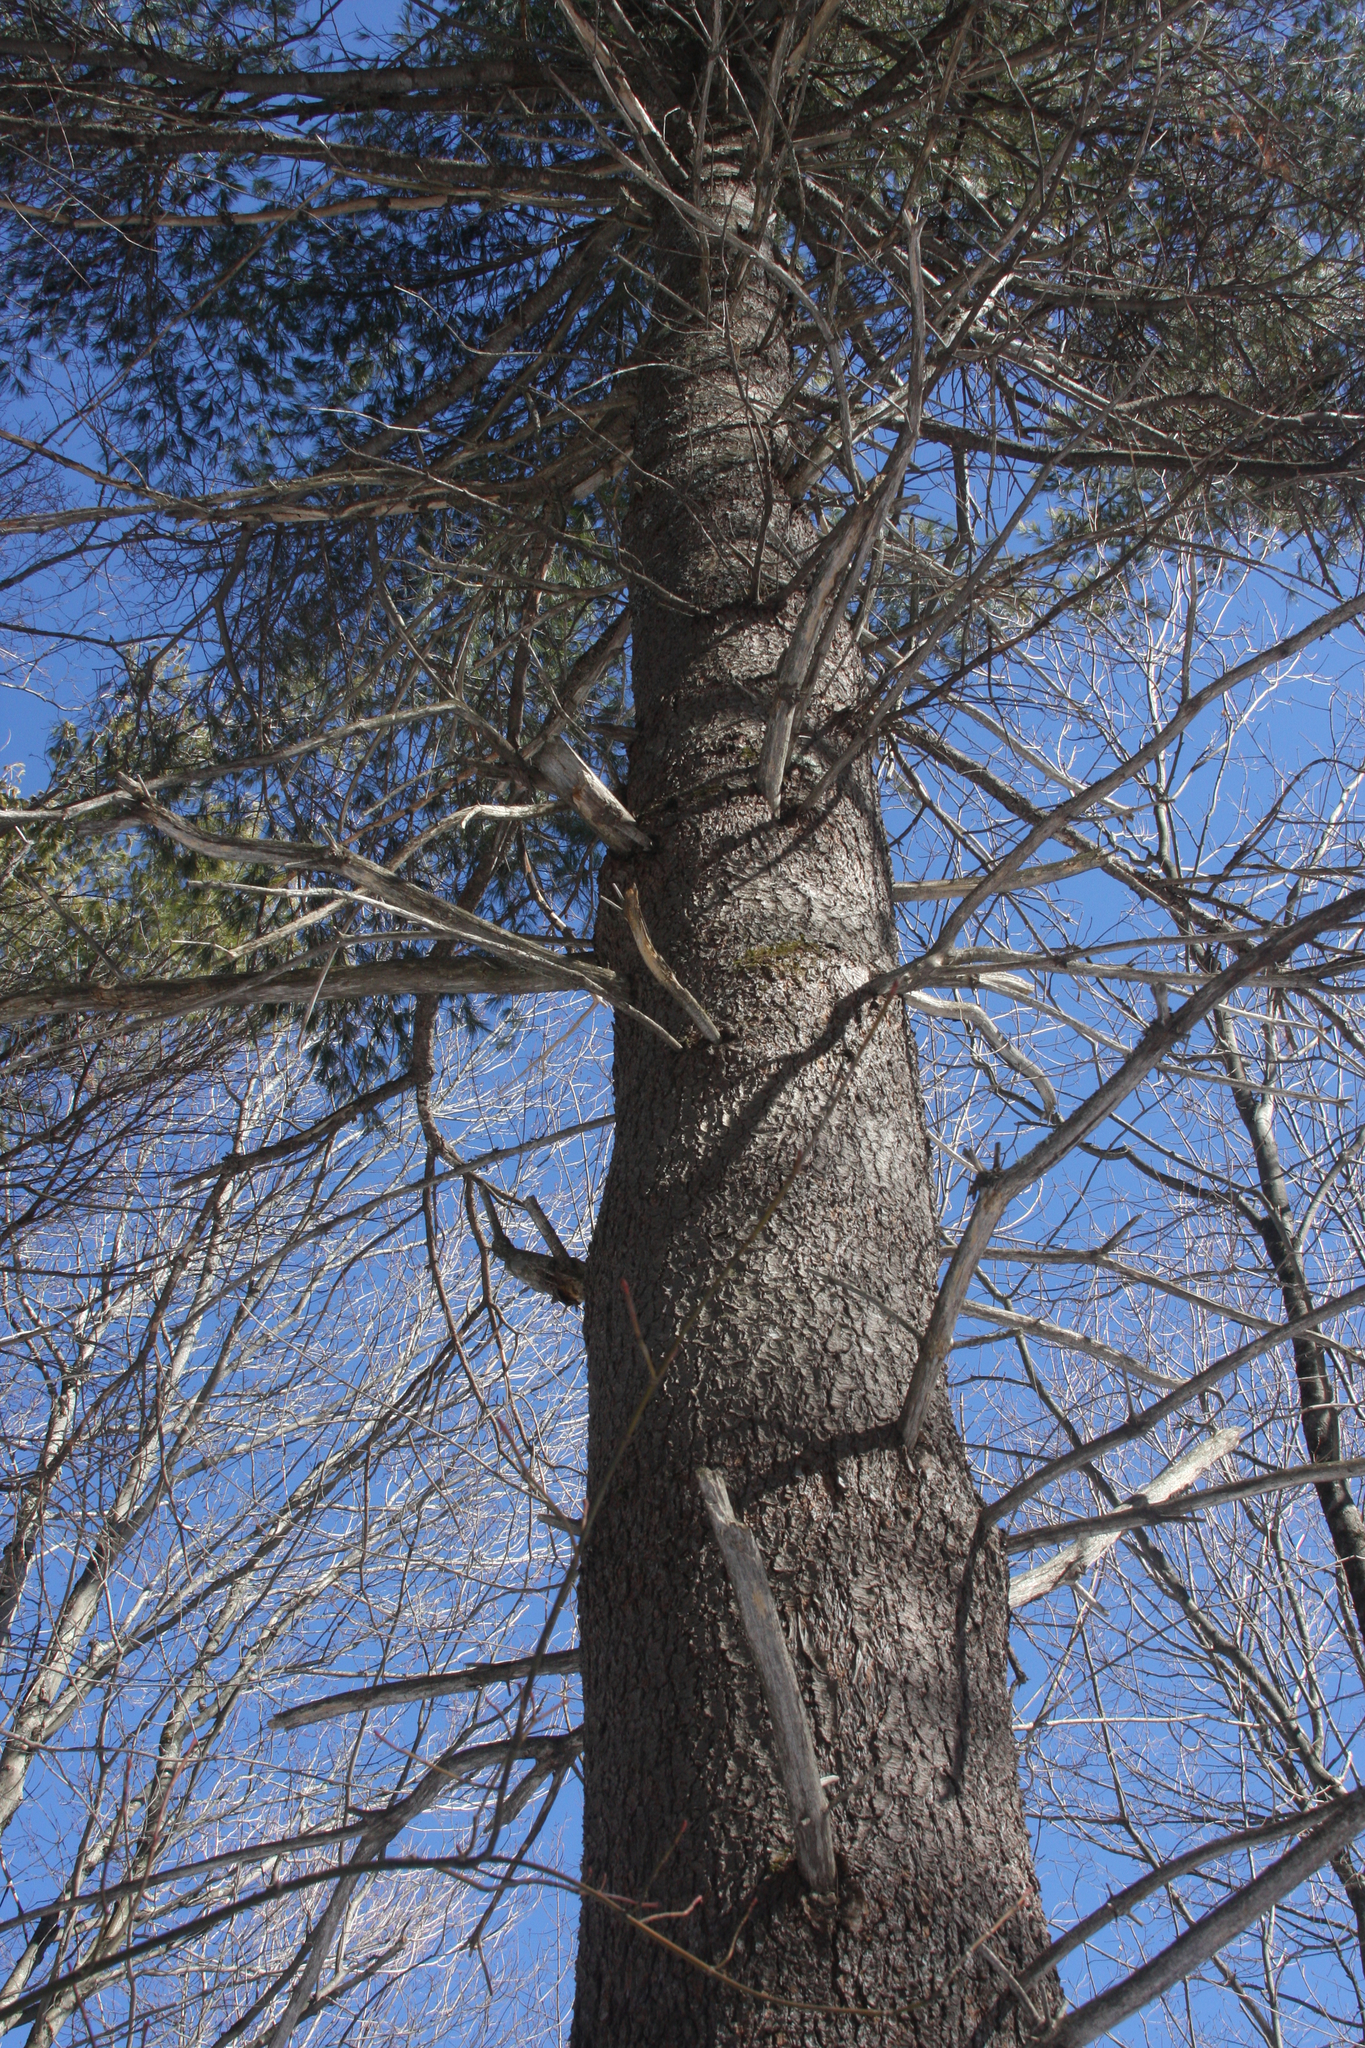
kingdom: Plantae
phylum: Tracheophyta
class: Pinopsida
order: Pinales
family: Pinaceae
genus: Pinus
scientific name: Pinus strobus
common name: Weymouth pine
